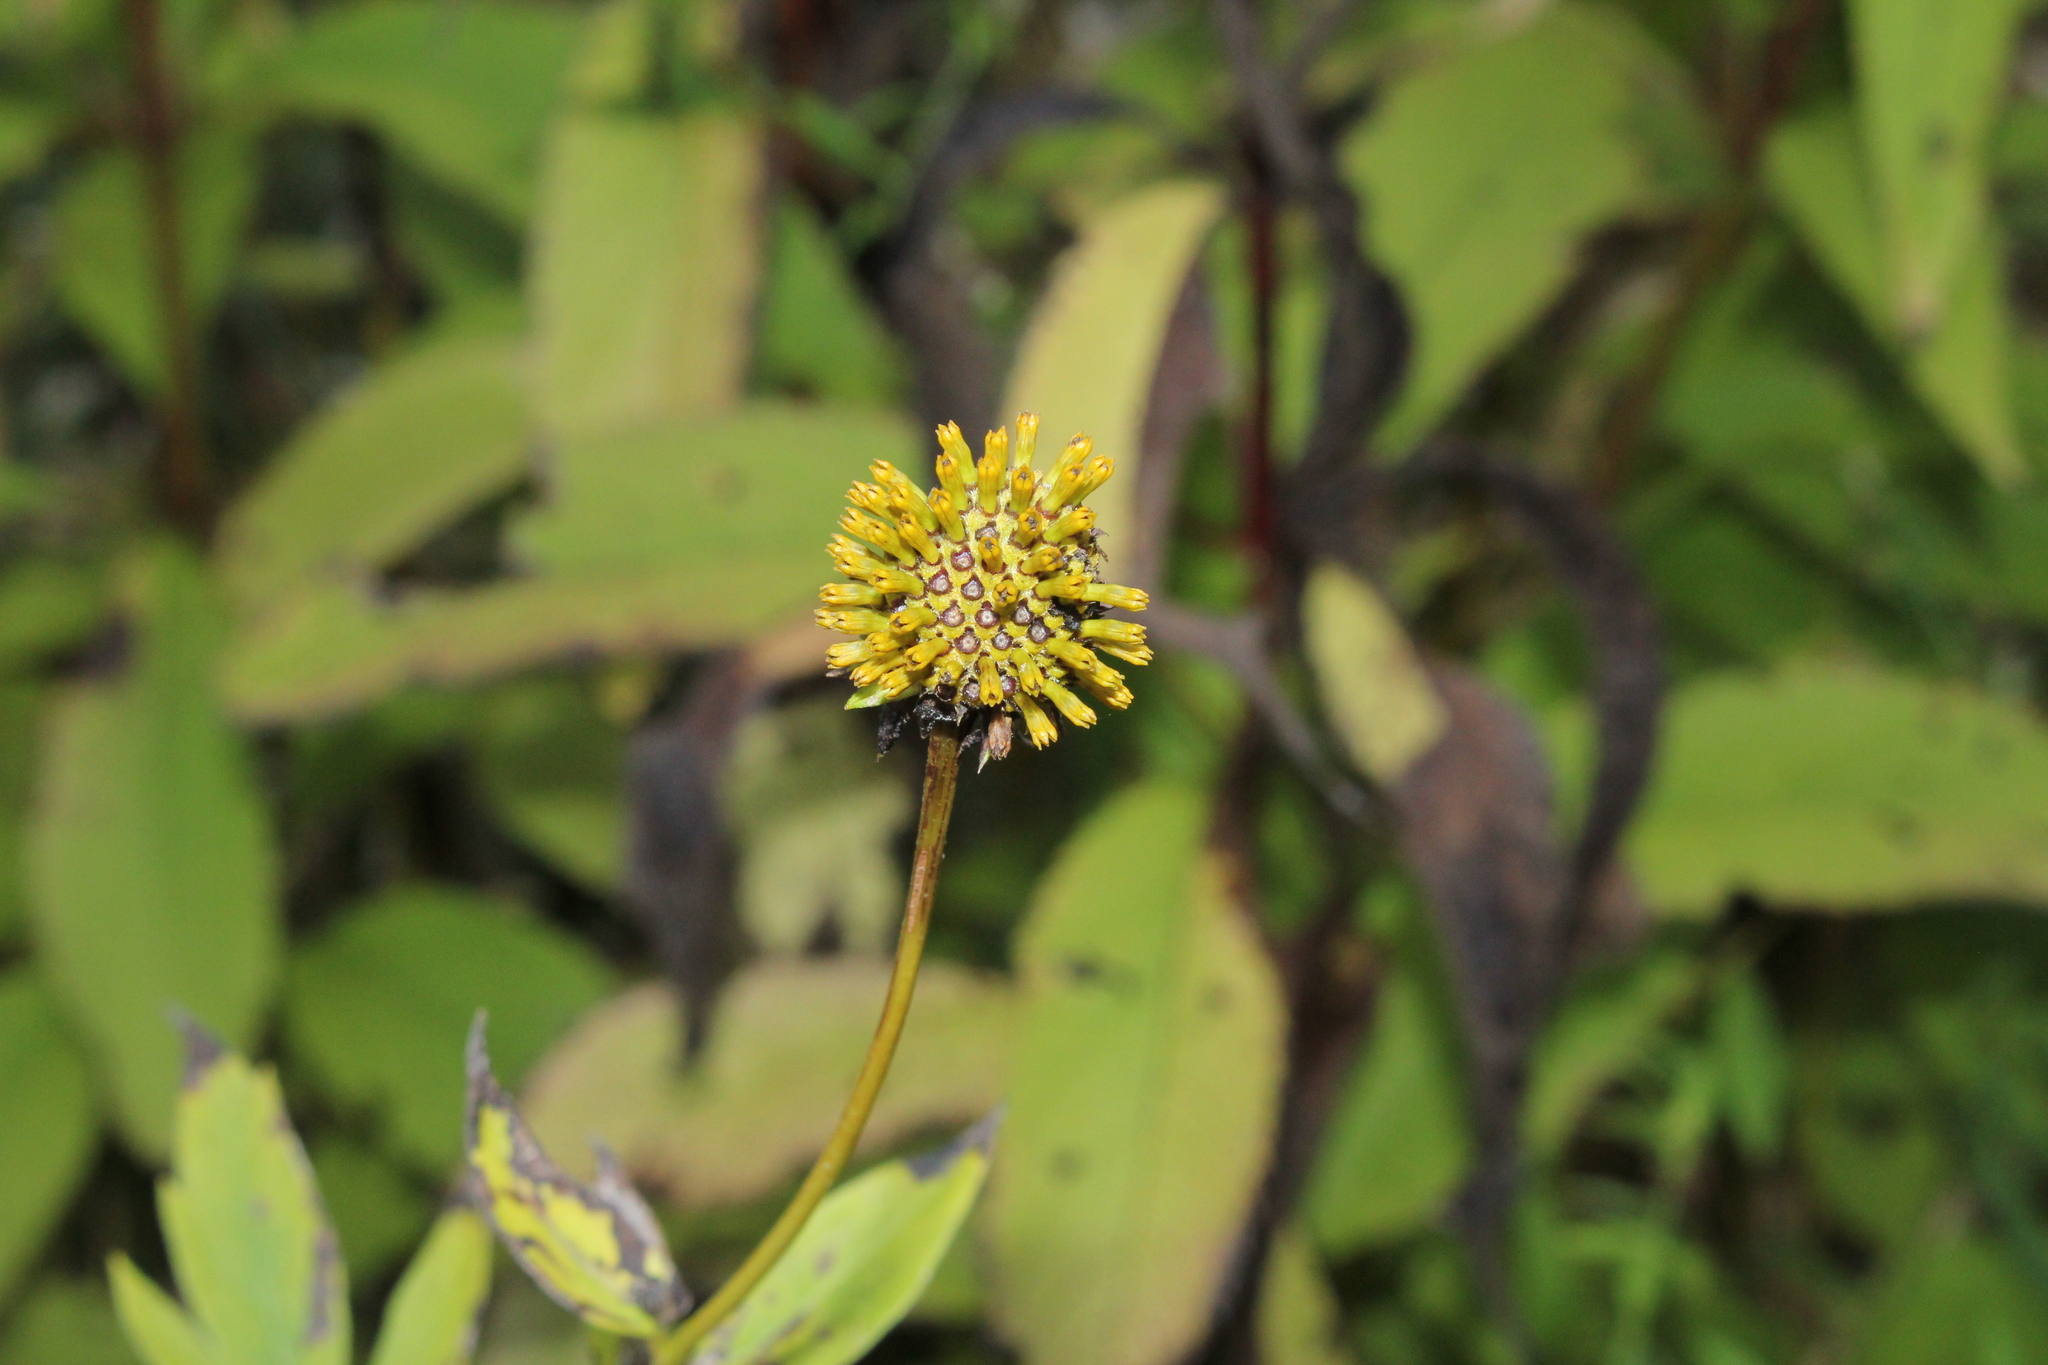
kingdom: Plantae
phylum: Tracheophyta
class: Magnoliopsida
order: Asterales
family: Asteraceae
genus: Rudbeckia
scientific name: Rudbeckia laciniata
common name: Coneflower
